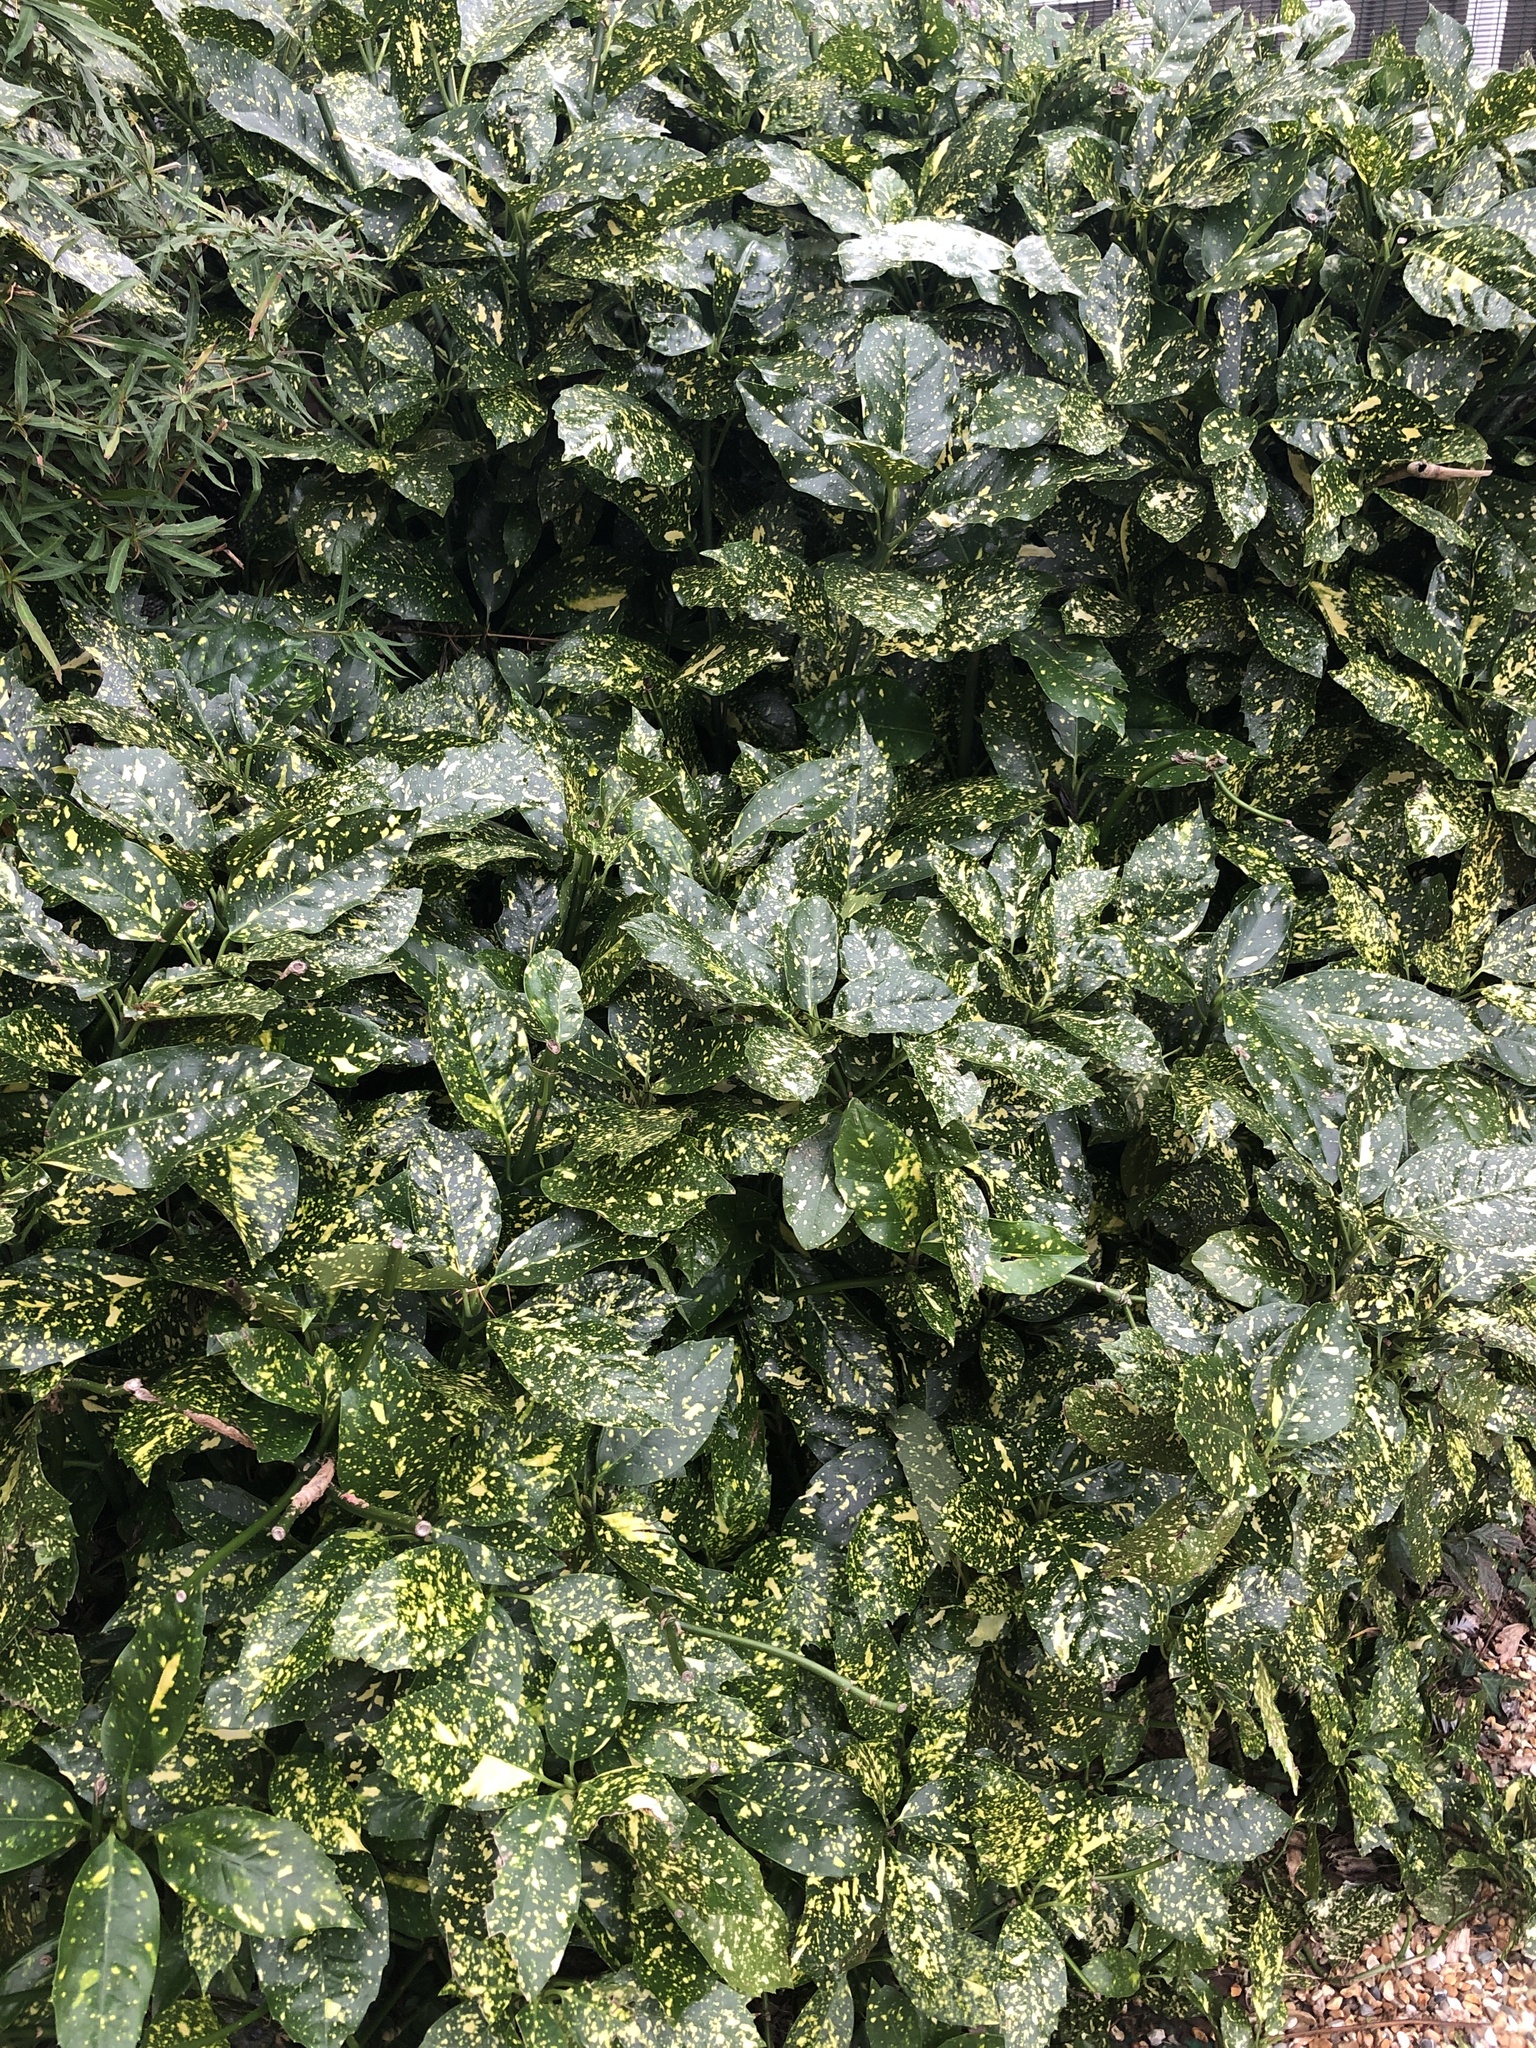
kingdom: Plantae
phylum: Tracheophyta
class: Magnoliopsida
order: Garryales
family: Garryaceae
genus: Aucuba
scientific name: Aucuba japonica
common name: Spotted-laurel
